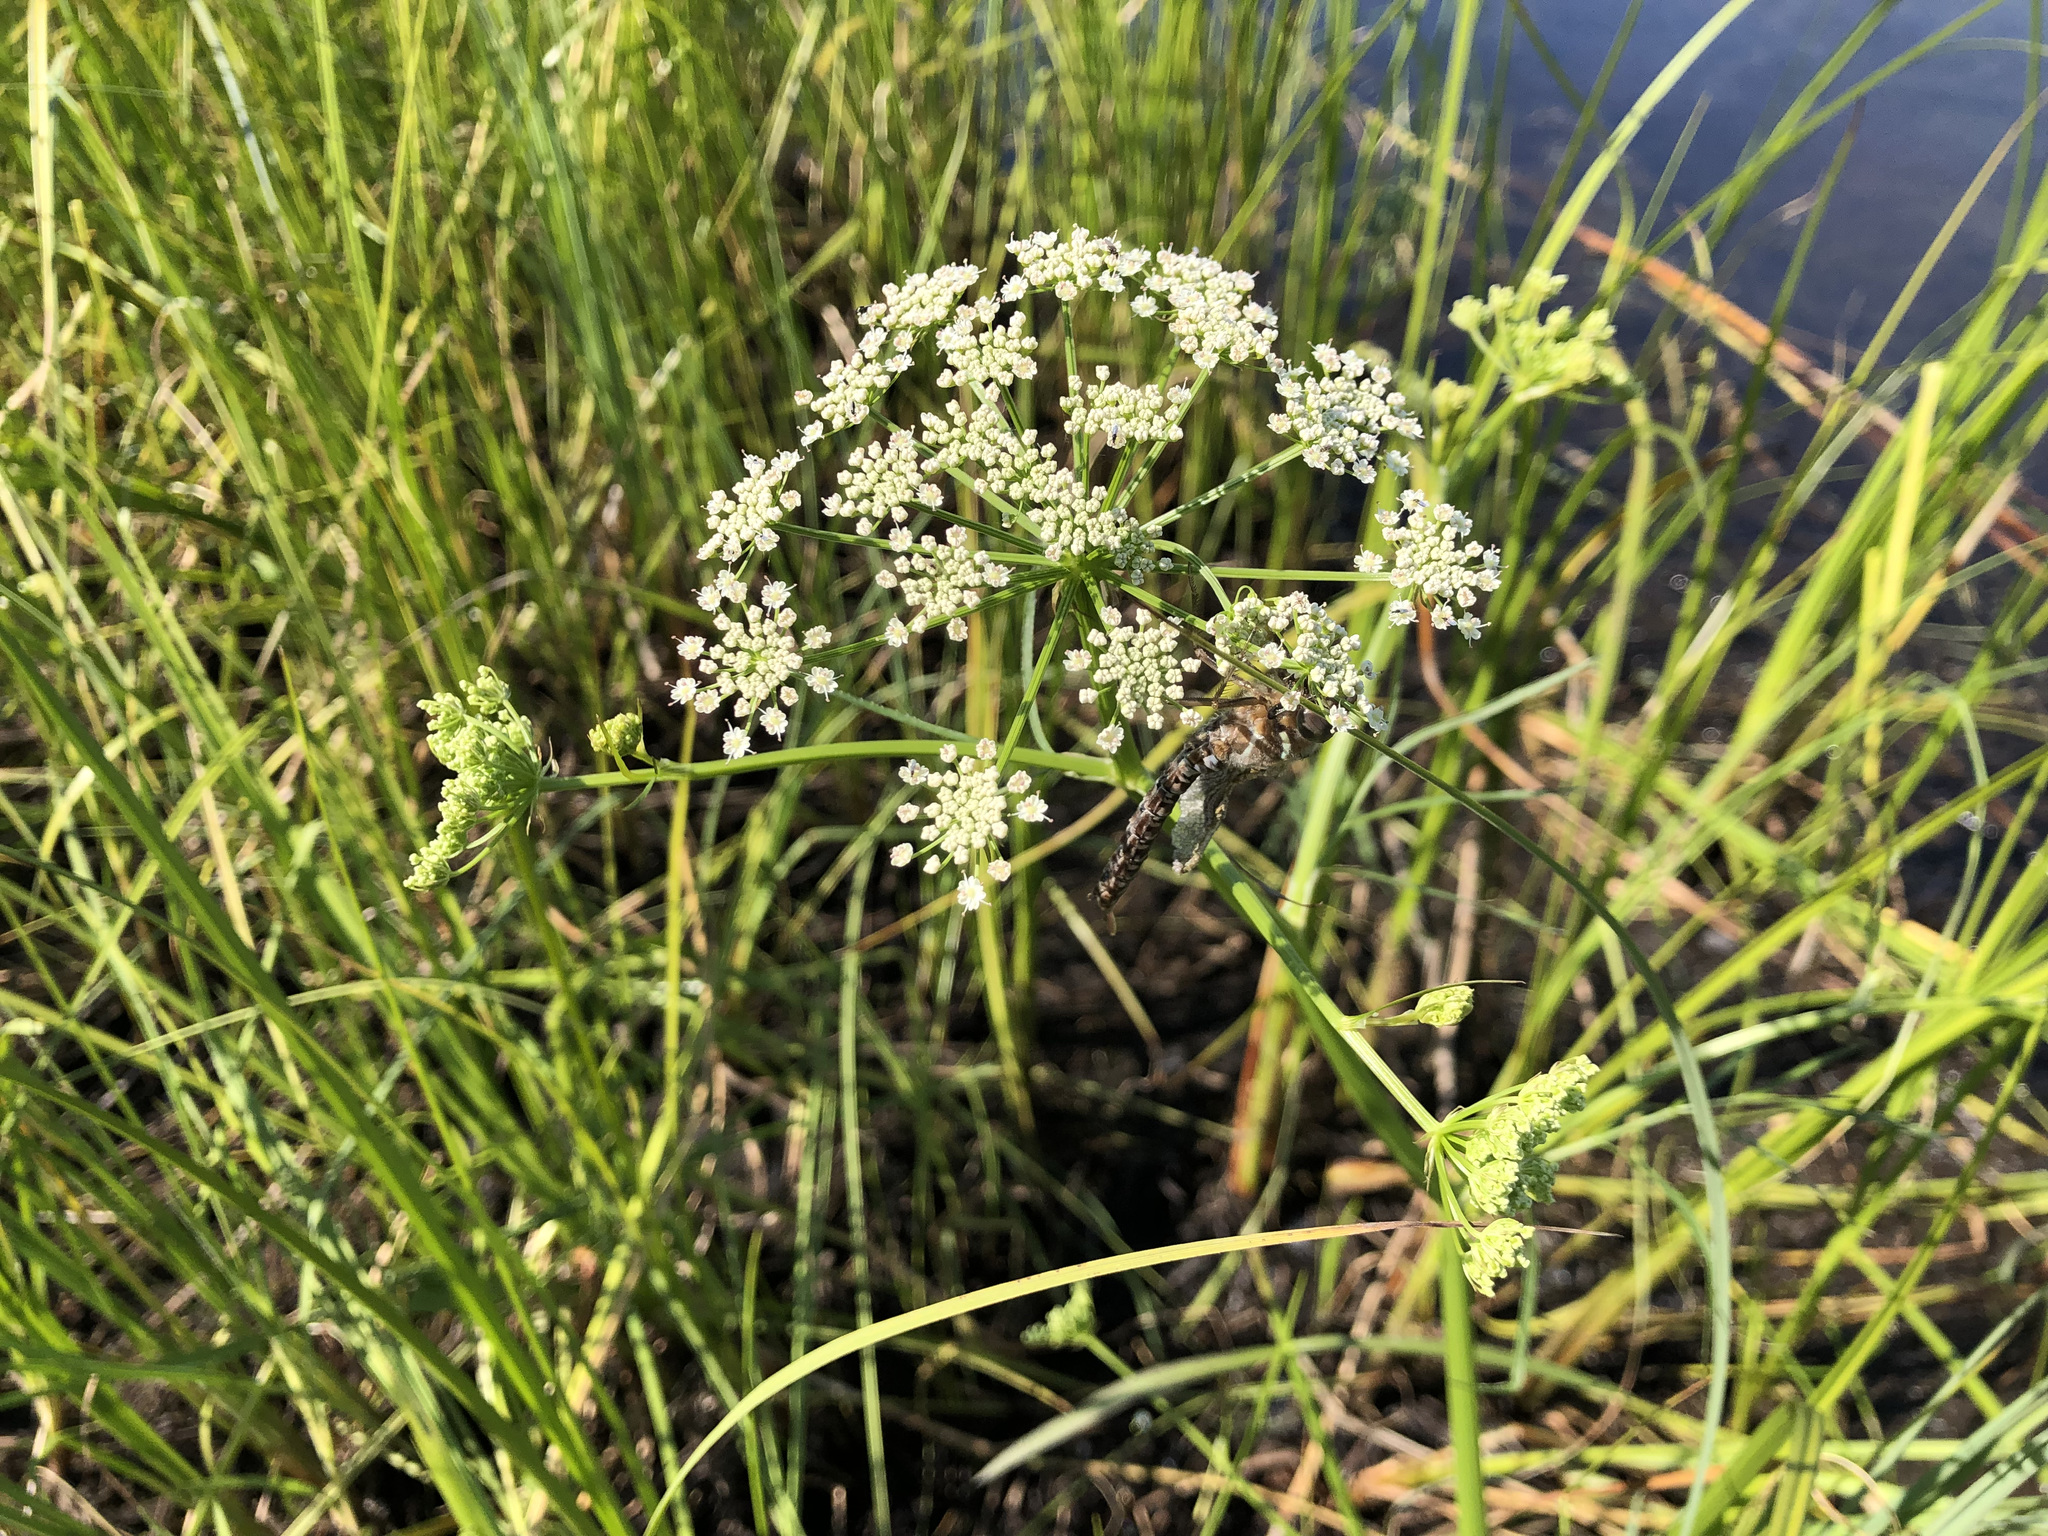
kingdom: Plantae
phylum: Tracheophyta
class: Magnoliopsida
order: Apiales
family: Apiaceae
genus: Cicuta
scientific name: Cicuta virosa
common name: Cowbane
